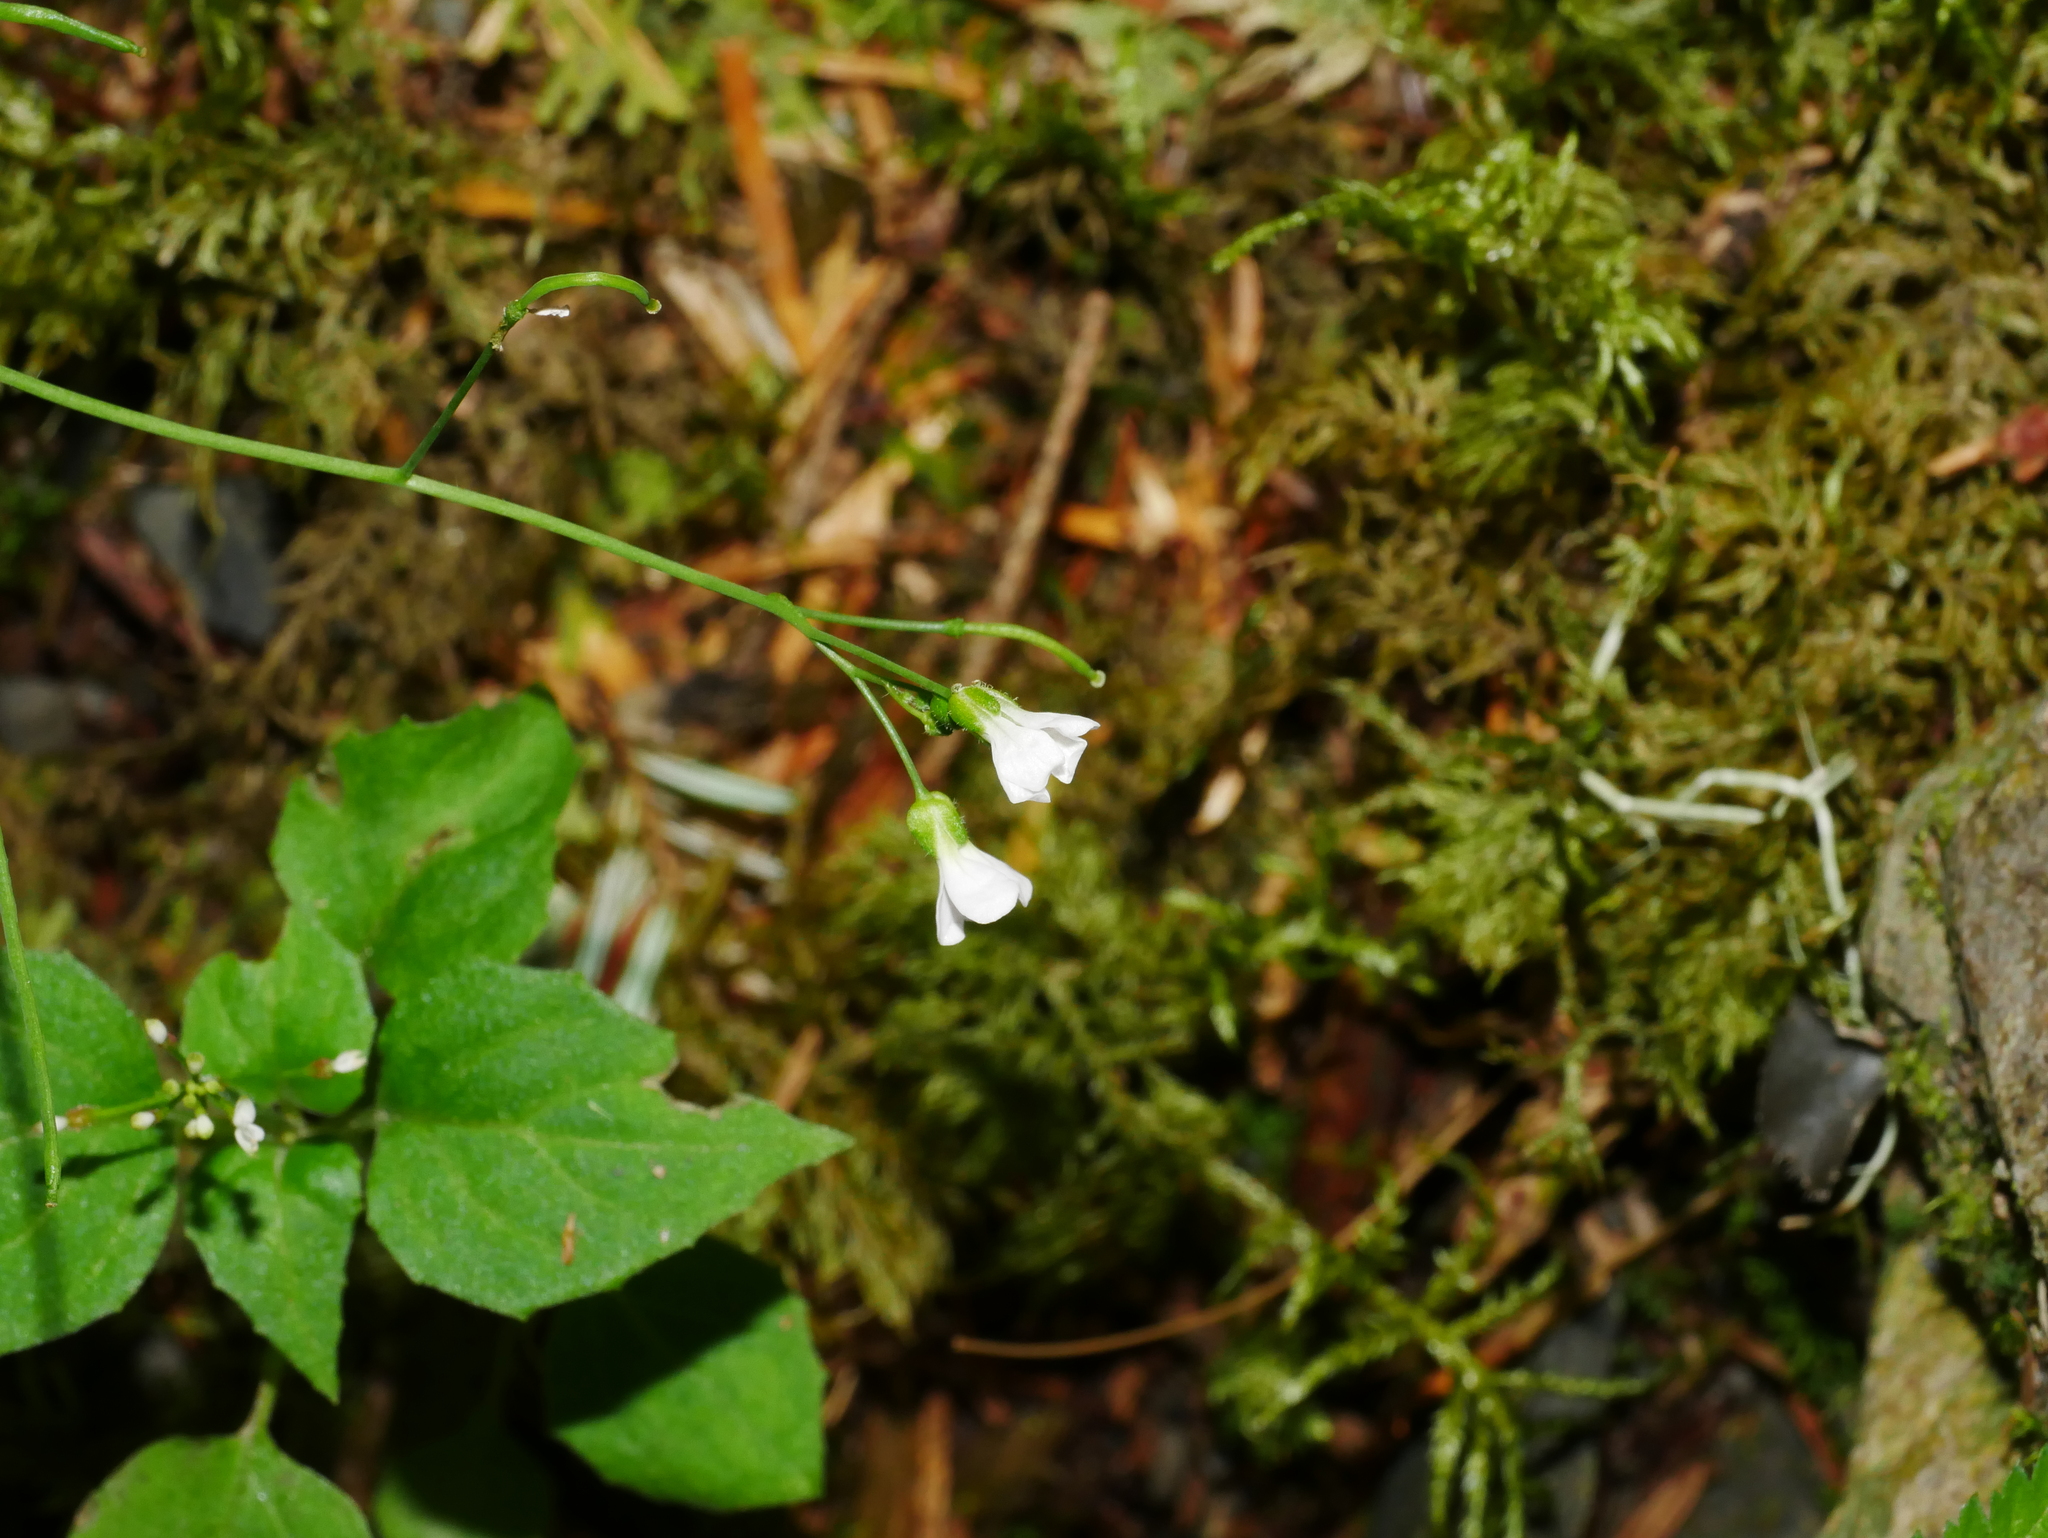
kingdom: Plantae
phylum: Tracheophyta
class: Magnoliopsida
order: Brassicales
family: Brassicaceae
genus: Arabidopsis
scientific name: Arabidopsis halleri
